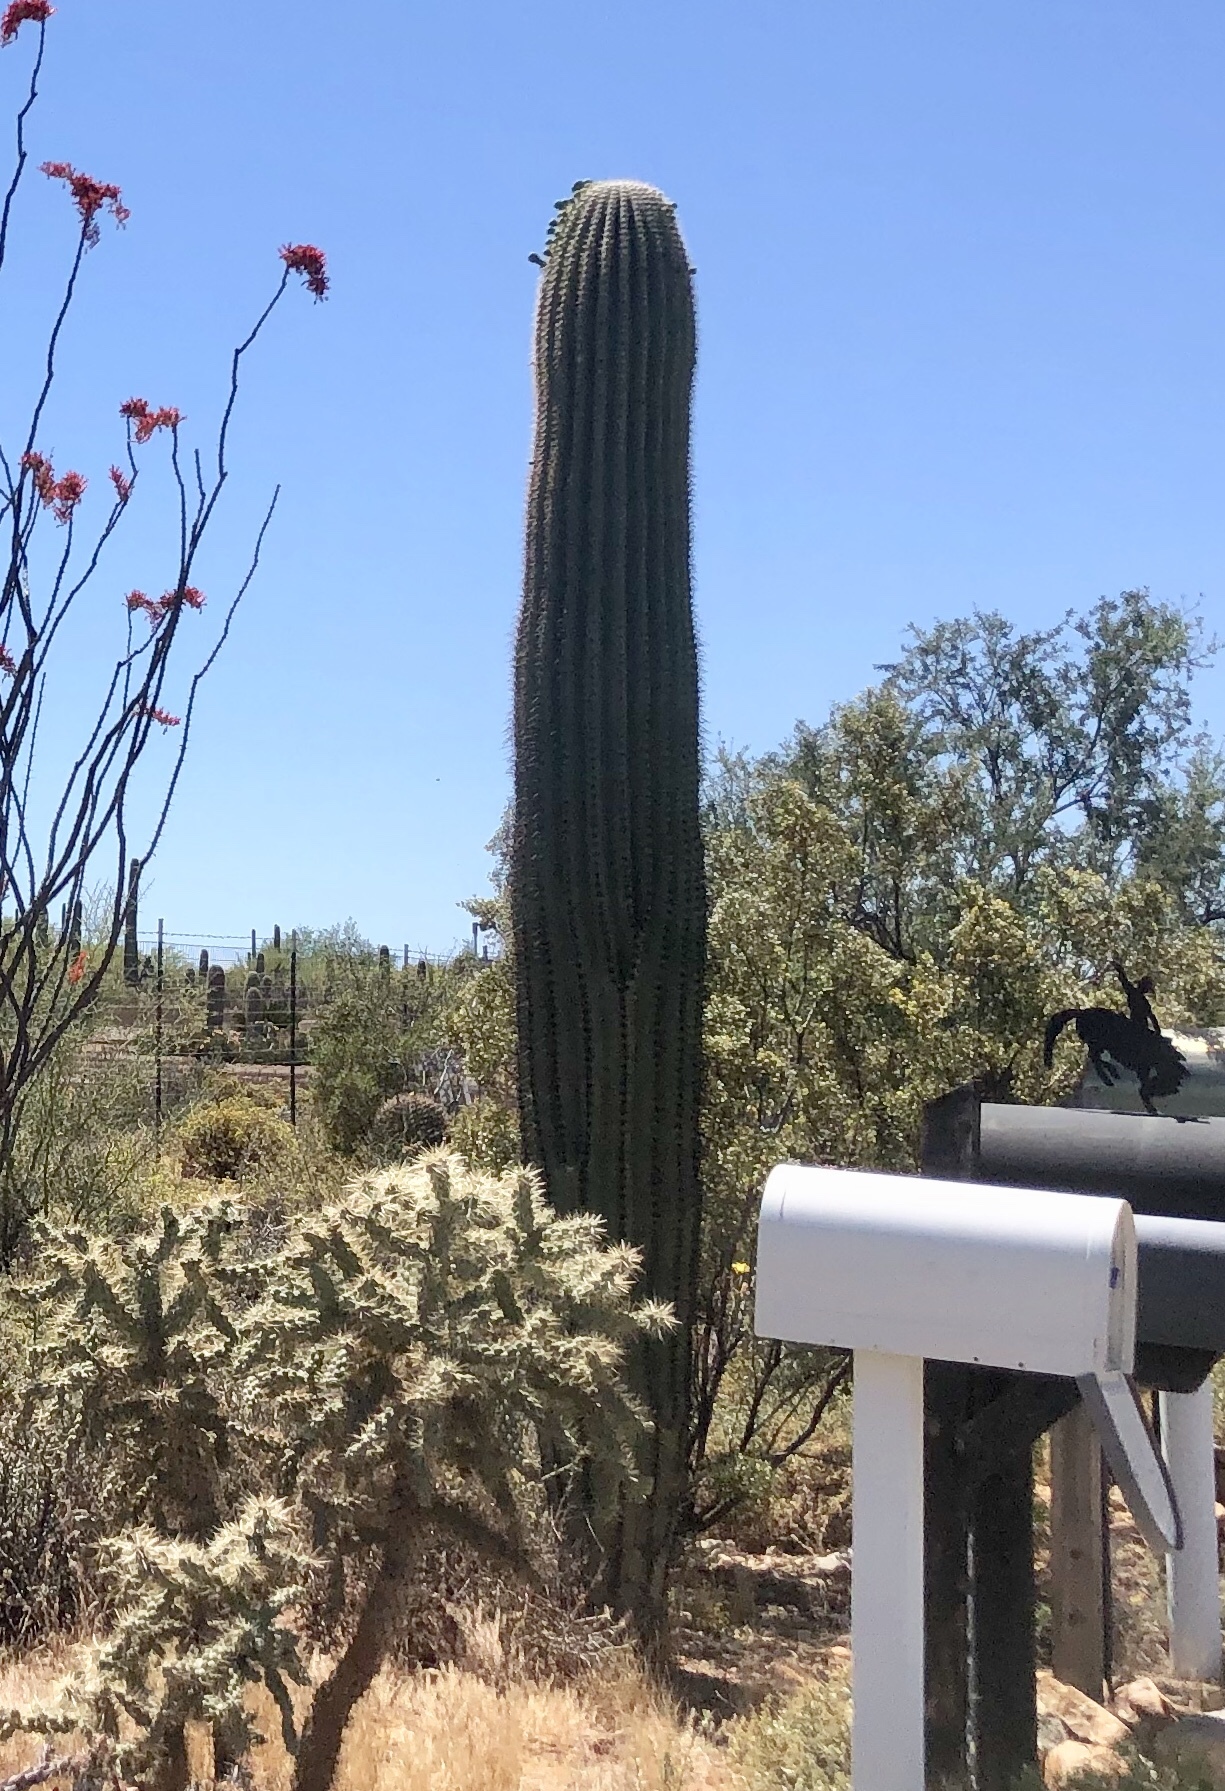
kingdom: Plantae
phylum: Tracheophyta
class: Magnoliopsida
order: Caryophyllales
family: Cactaceae
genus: Carnegiea
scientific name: Carnegiea gigantea
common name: Saguaro
